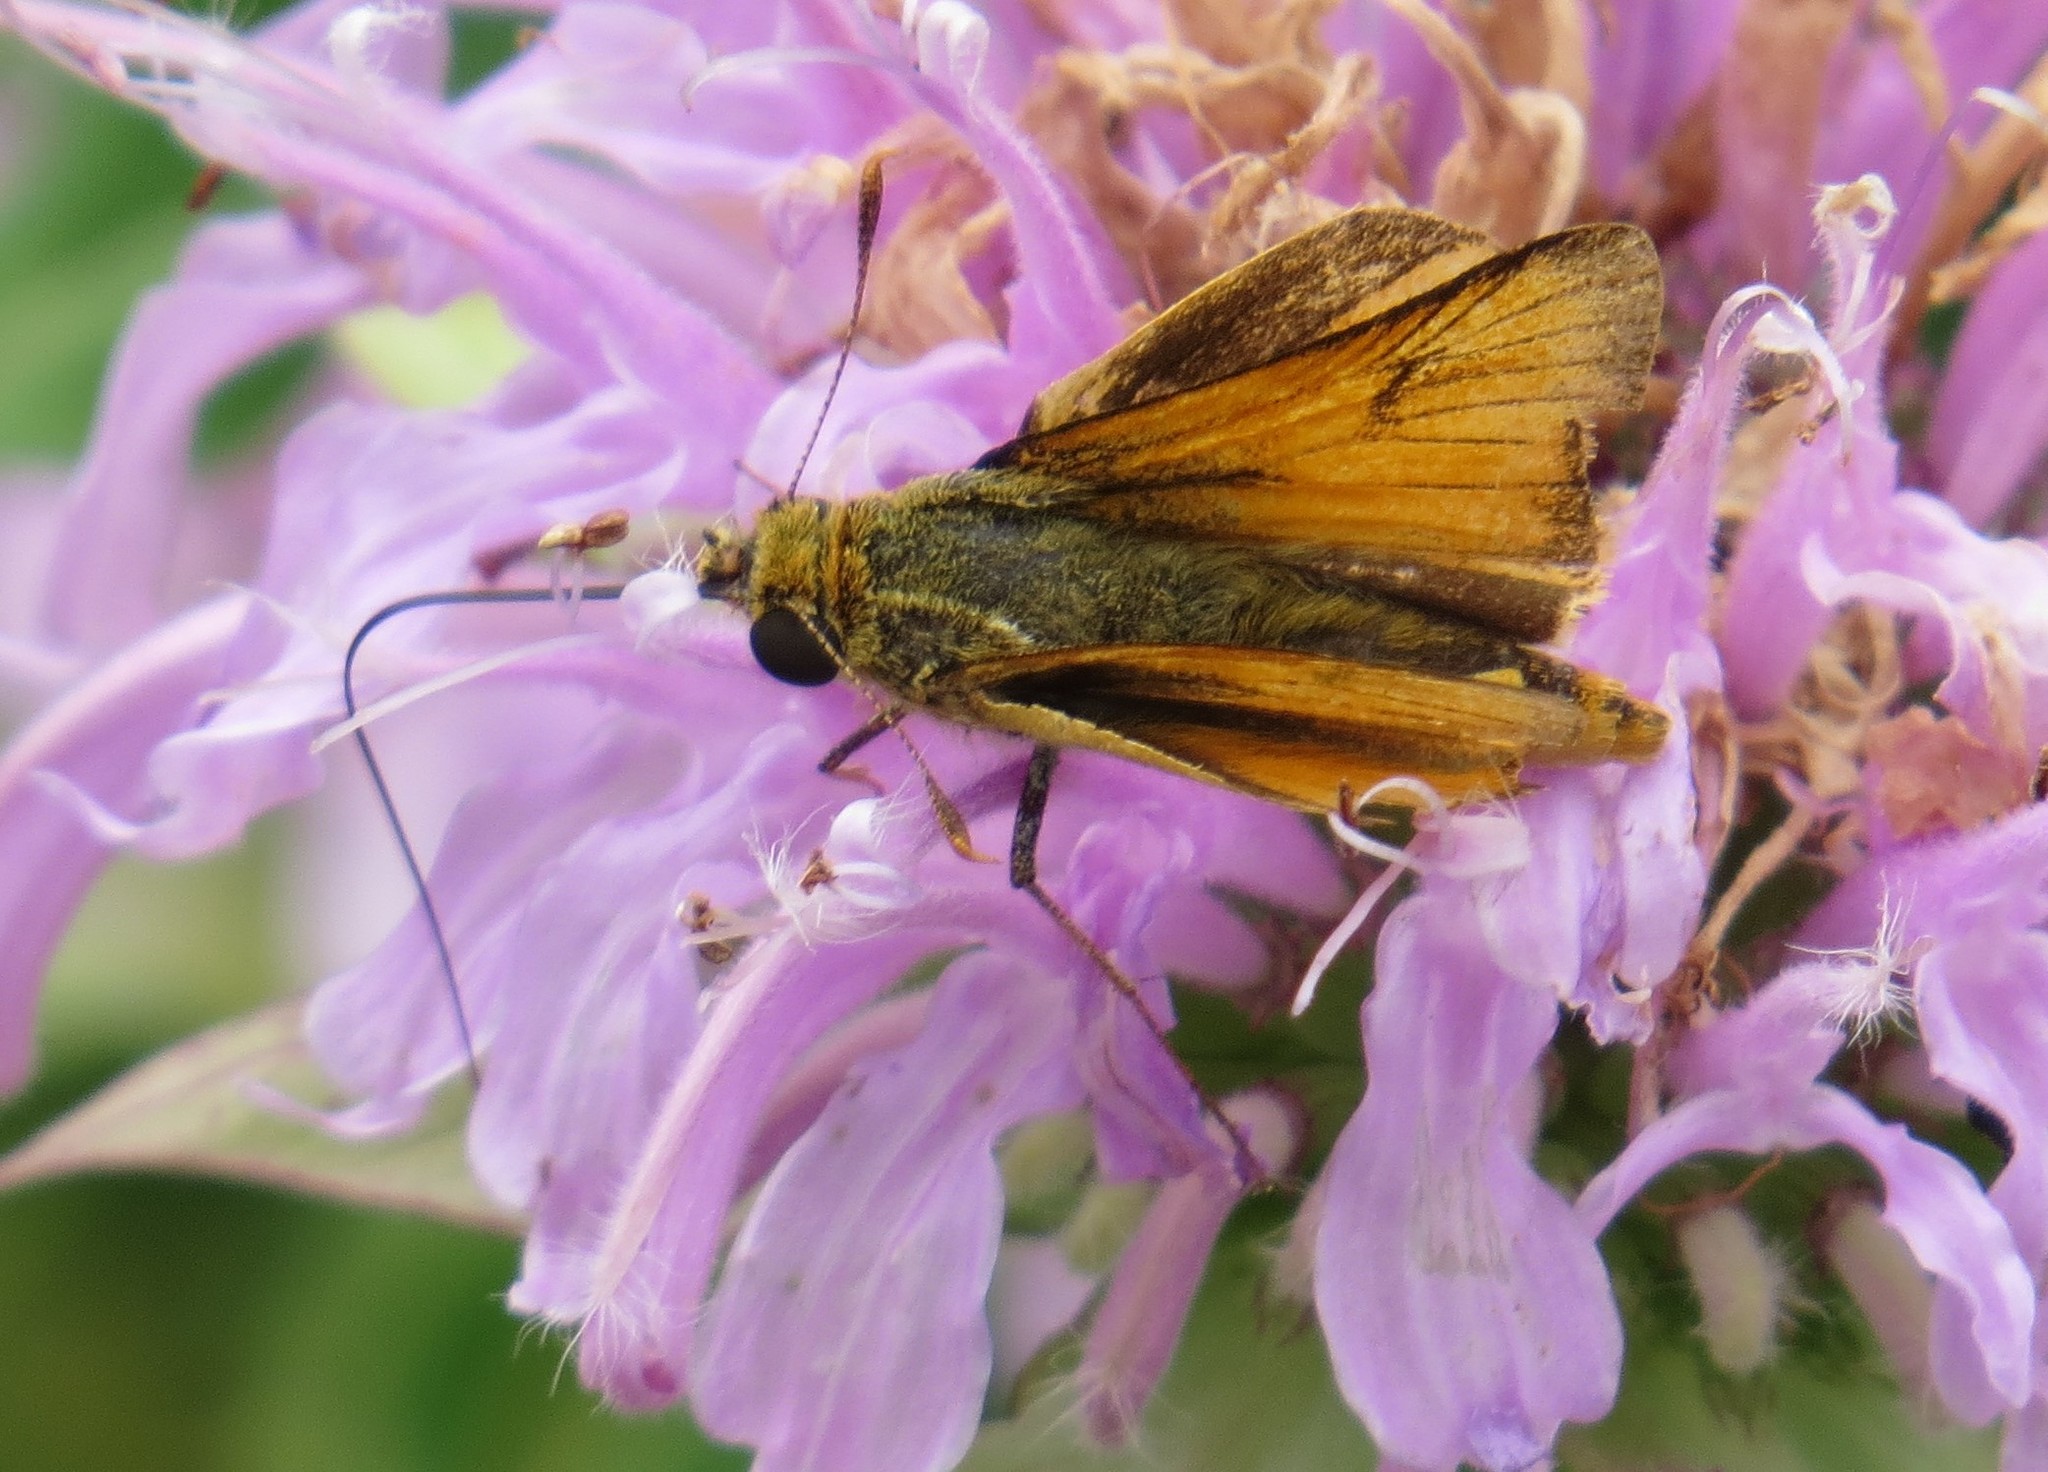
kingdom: Animalia
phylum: Arthropoda
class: Insecta
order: Lepidoptera
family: Hesperiidae
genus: Atrytone
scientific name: Atrytone delaware
